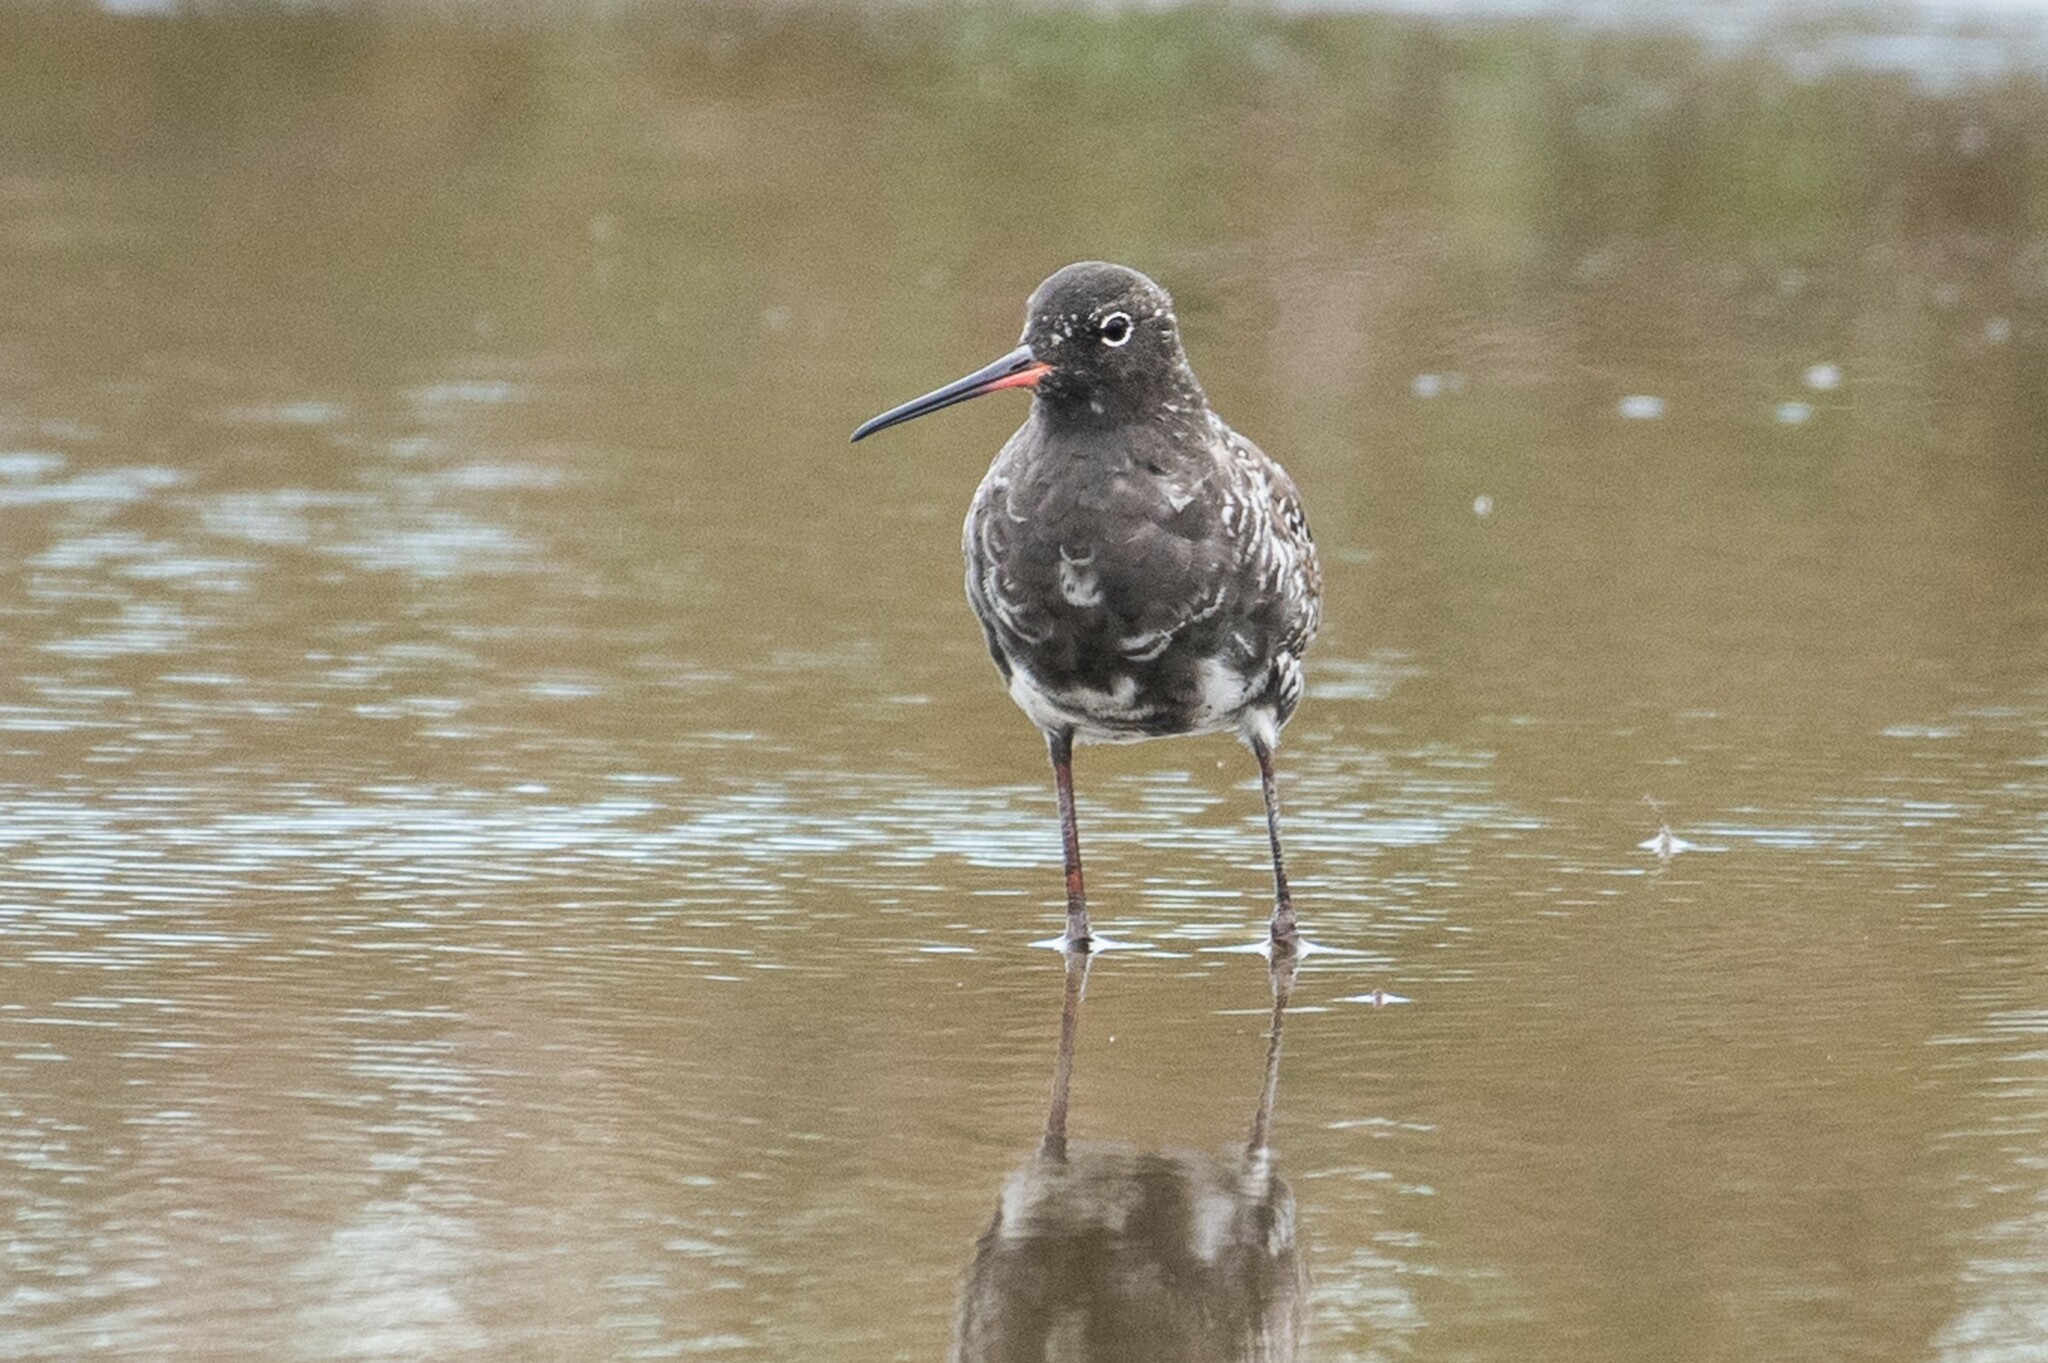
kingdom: Animalia
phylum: Chordata
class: Aves
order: Charadriiformes
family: Scolopacidae
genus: Tringa
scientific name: Tringa erythropus
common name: Spotted redshank
